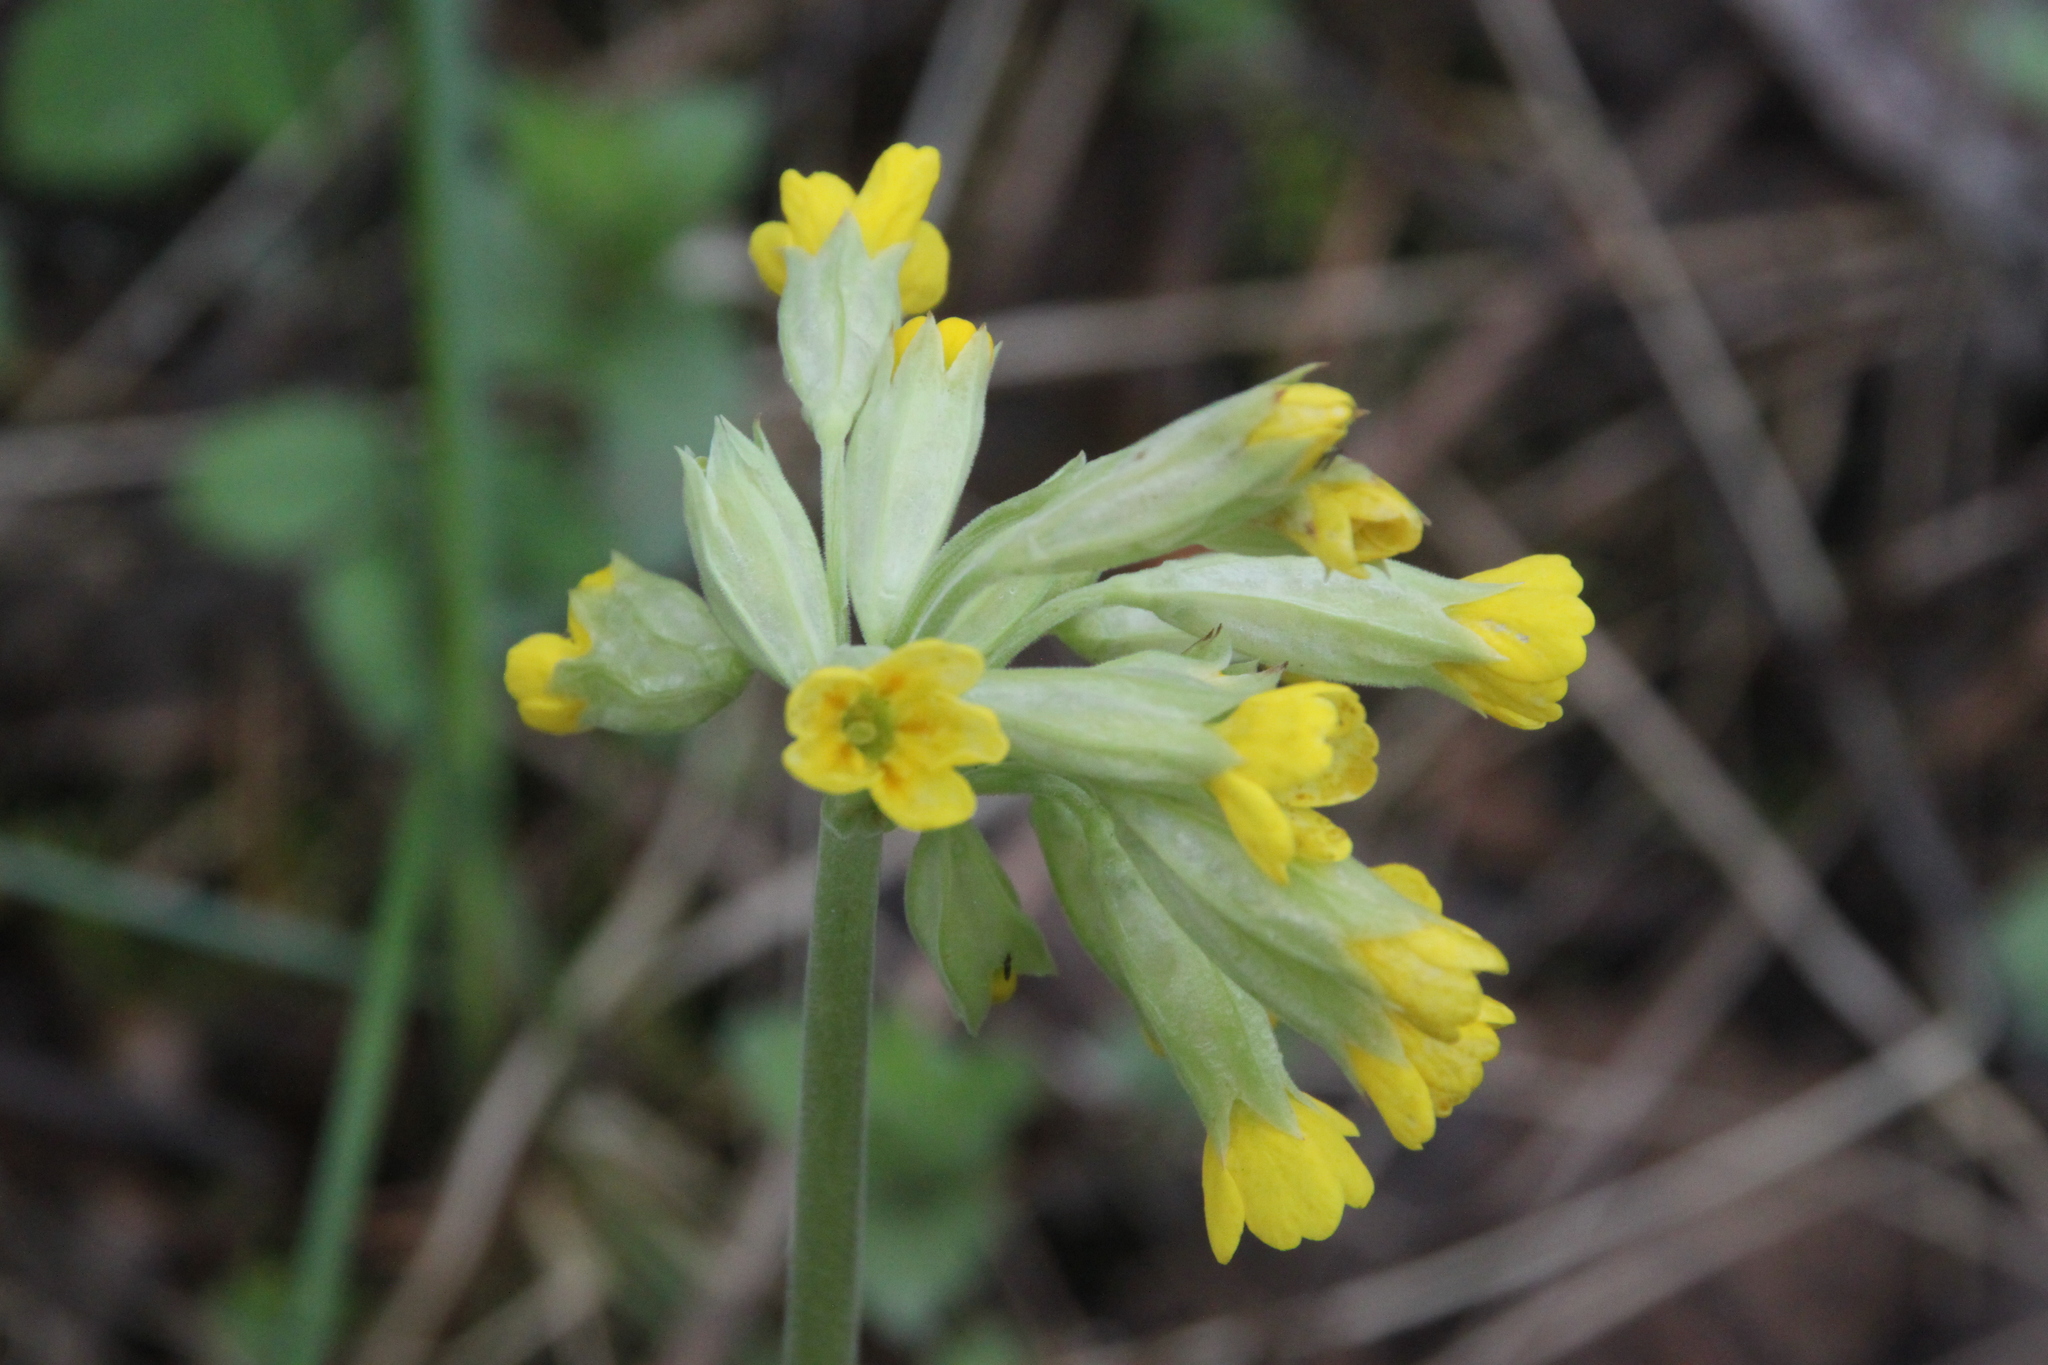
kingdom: Plantae
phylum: Tracheophyta
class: Magnoliopsida
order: Ericales
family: Primulaceae
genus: Primula
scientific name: Primula veris
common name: Cowslip
